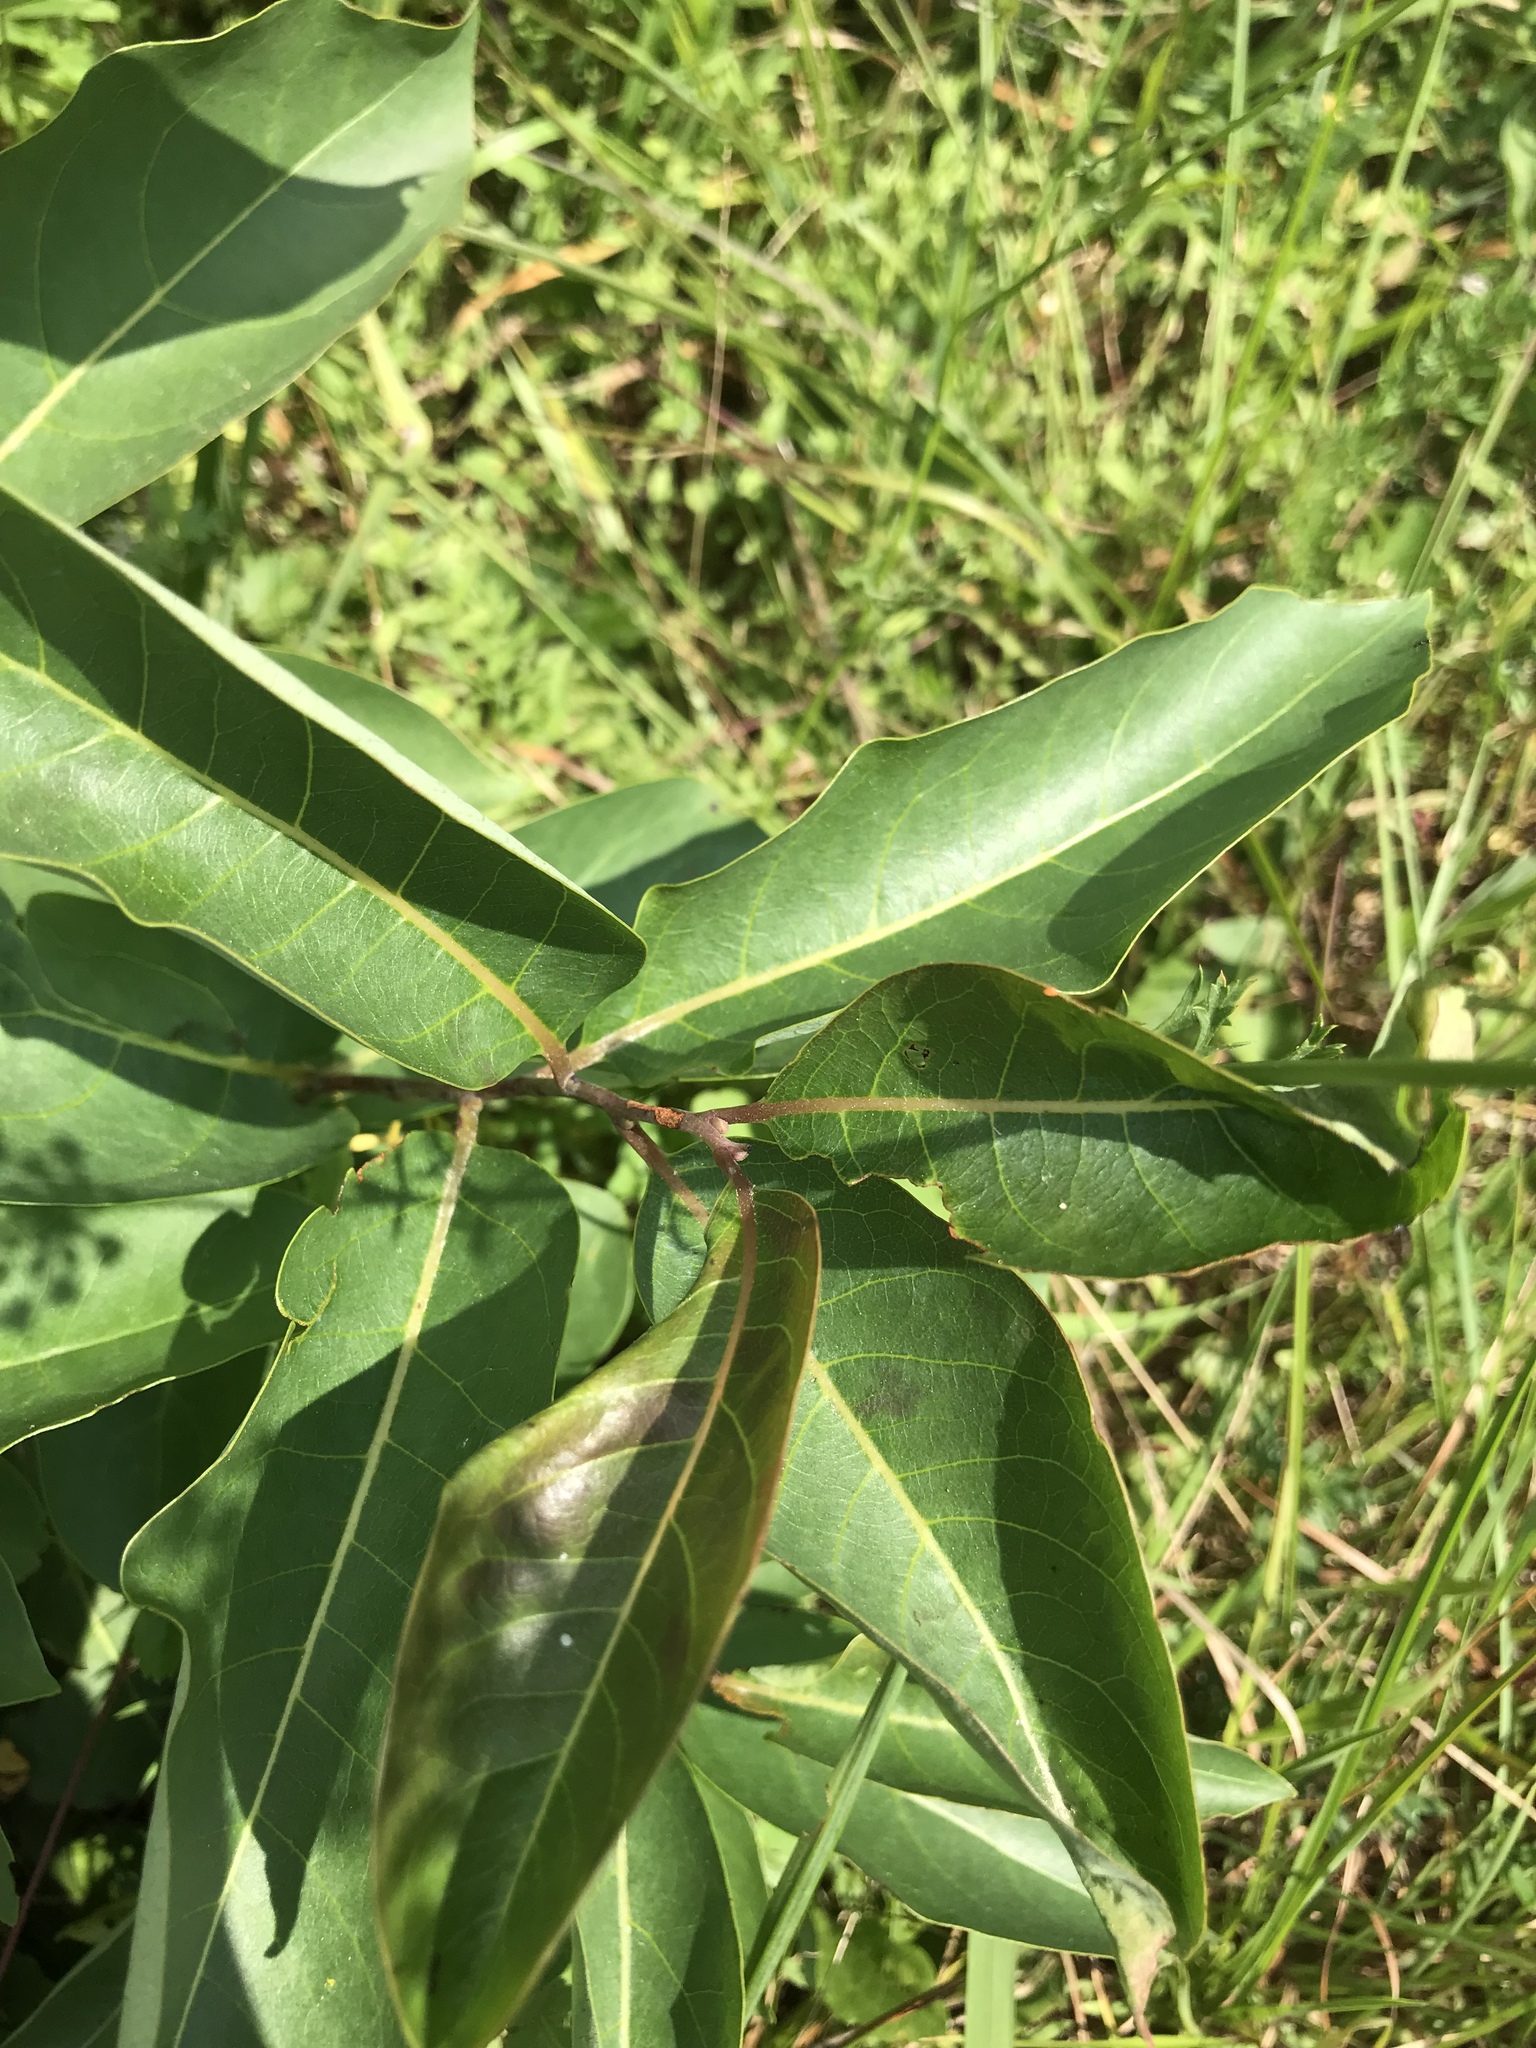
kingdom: Plantae
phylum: Tracheophyta
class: Magnoliopsida
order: Ericales
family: Ebenaceae
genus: Diospyros
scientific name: Diospyros virginiana
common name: Persimmon
